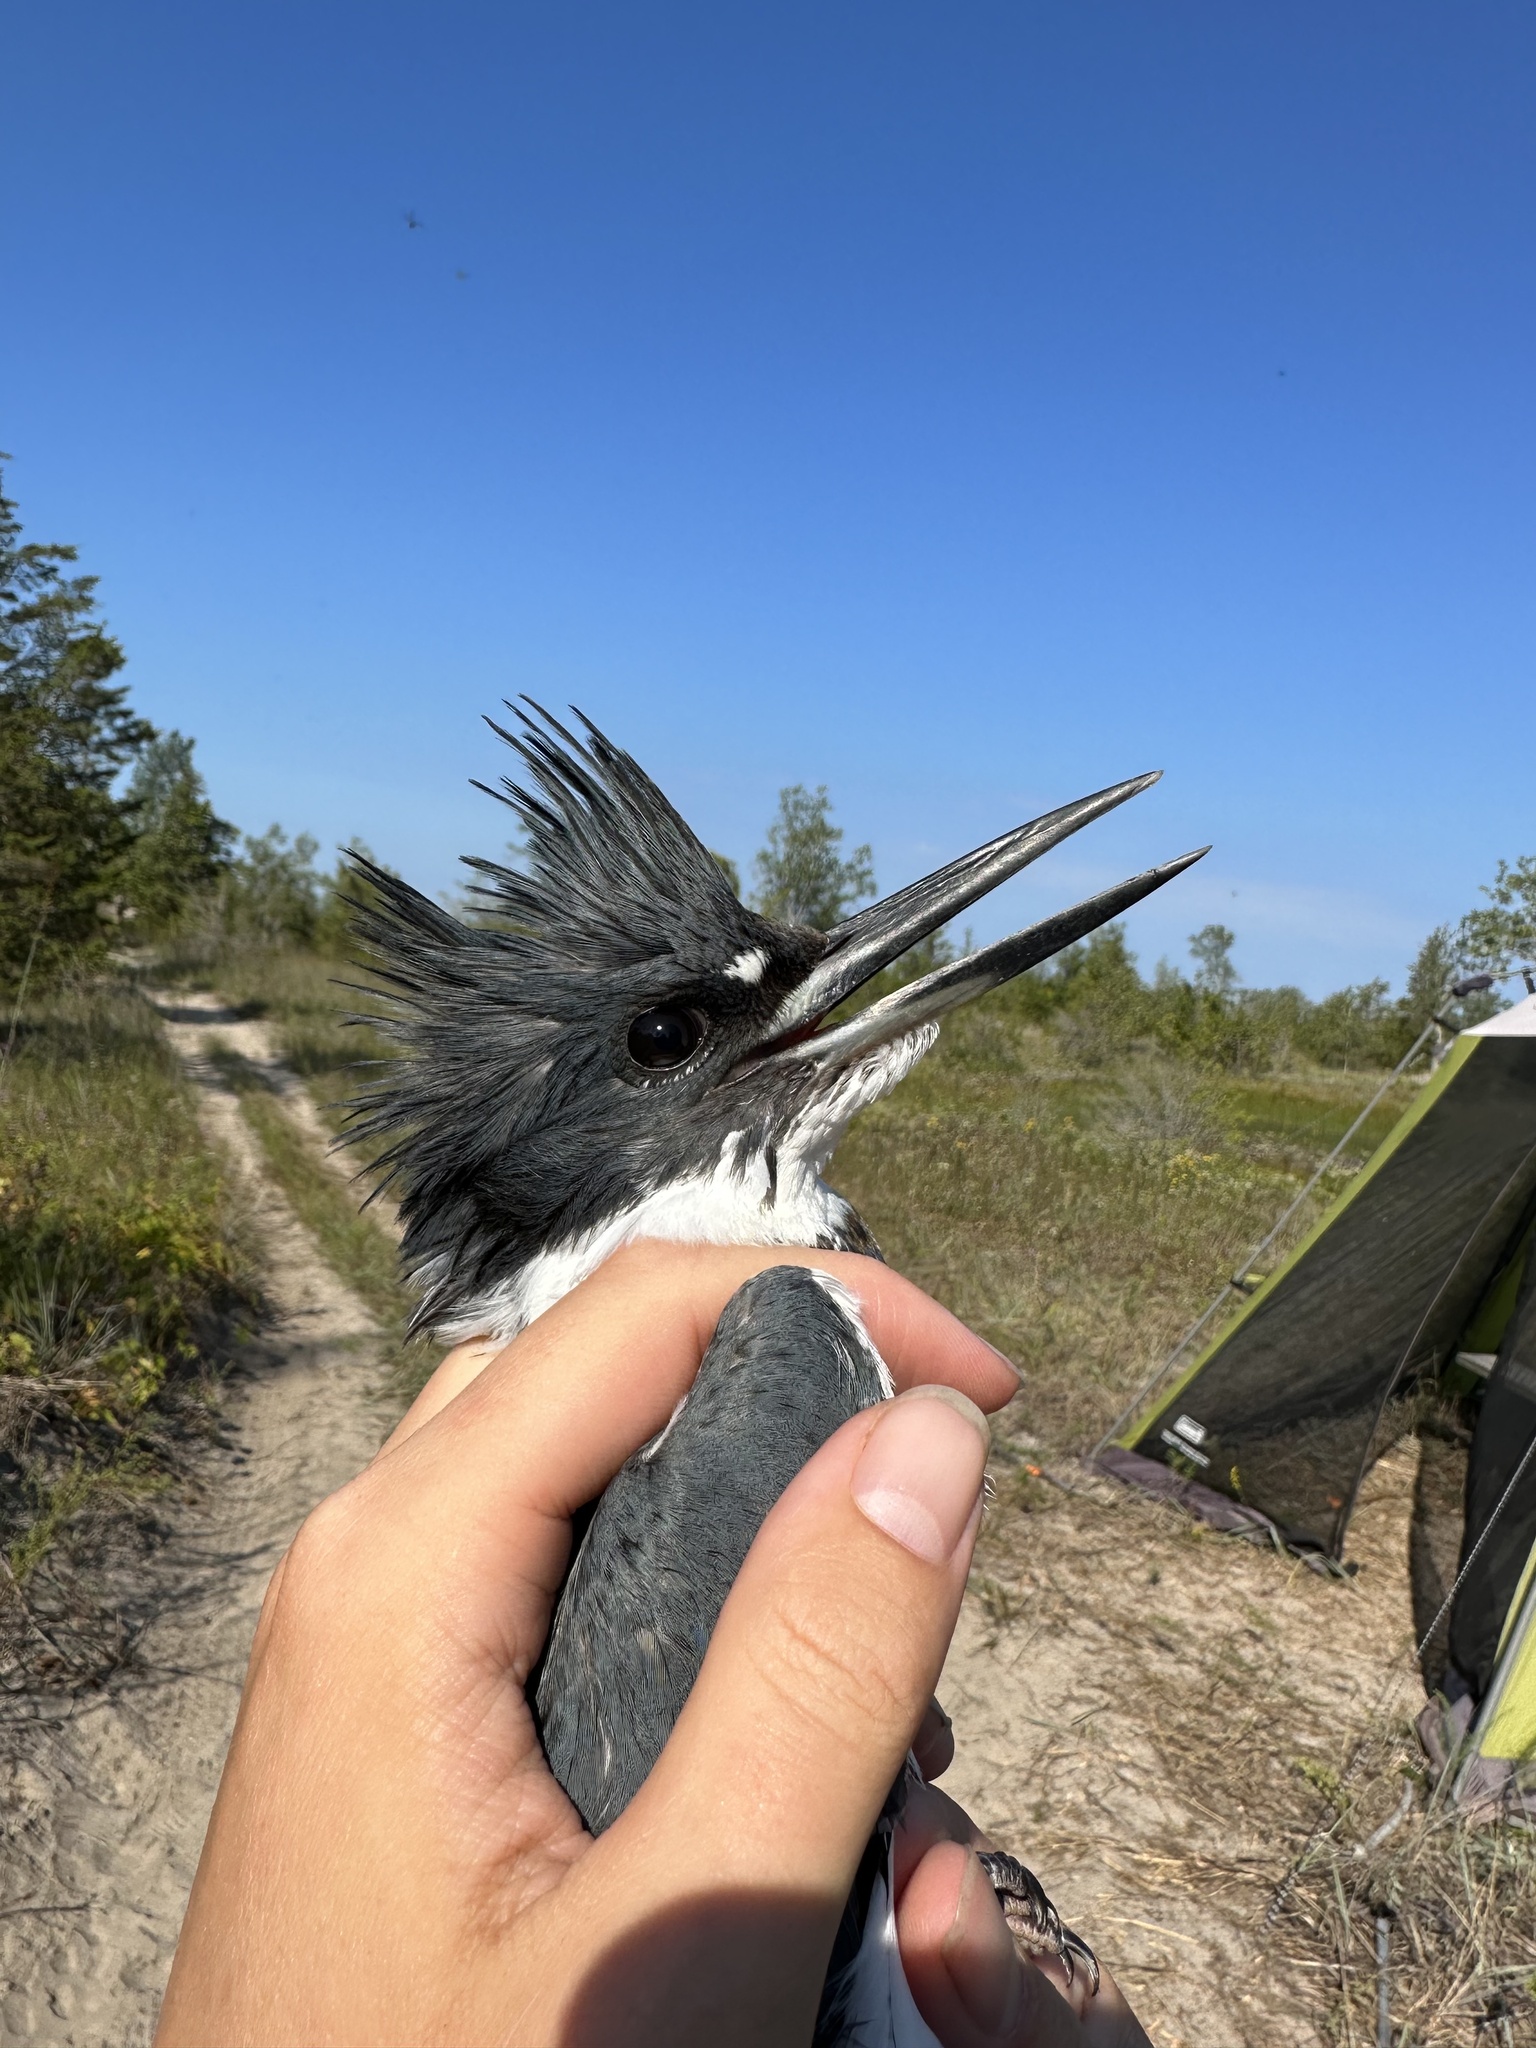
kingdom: Animalia
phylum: Chordata
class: Aves
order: Coraciiformes
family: Alcedinidae
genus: Megaceryle
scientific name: Megaceryle alcyon
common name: Belted kingfisher
